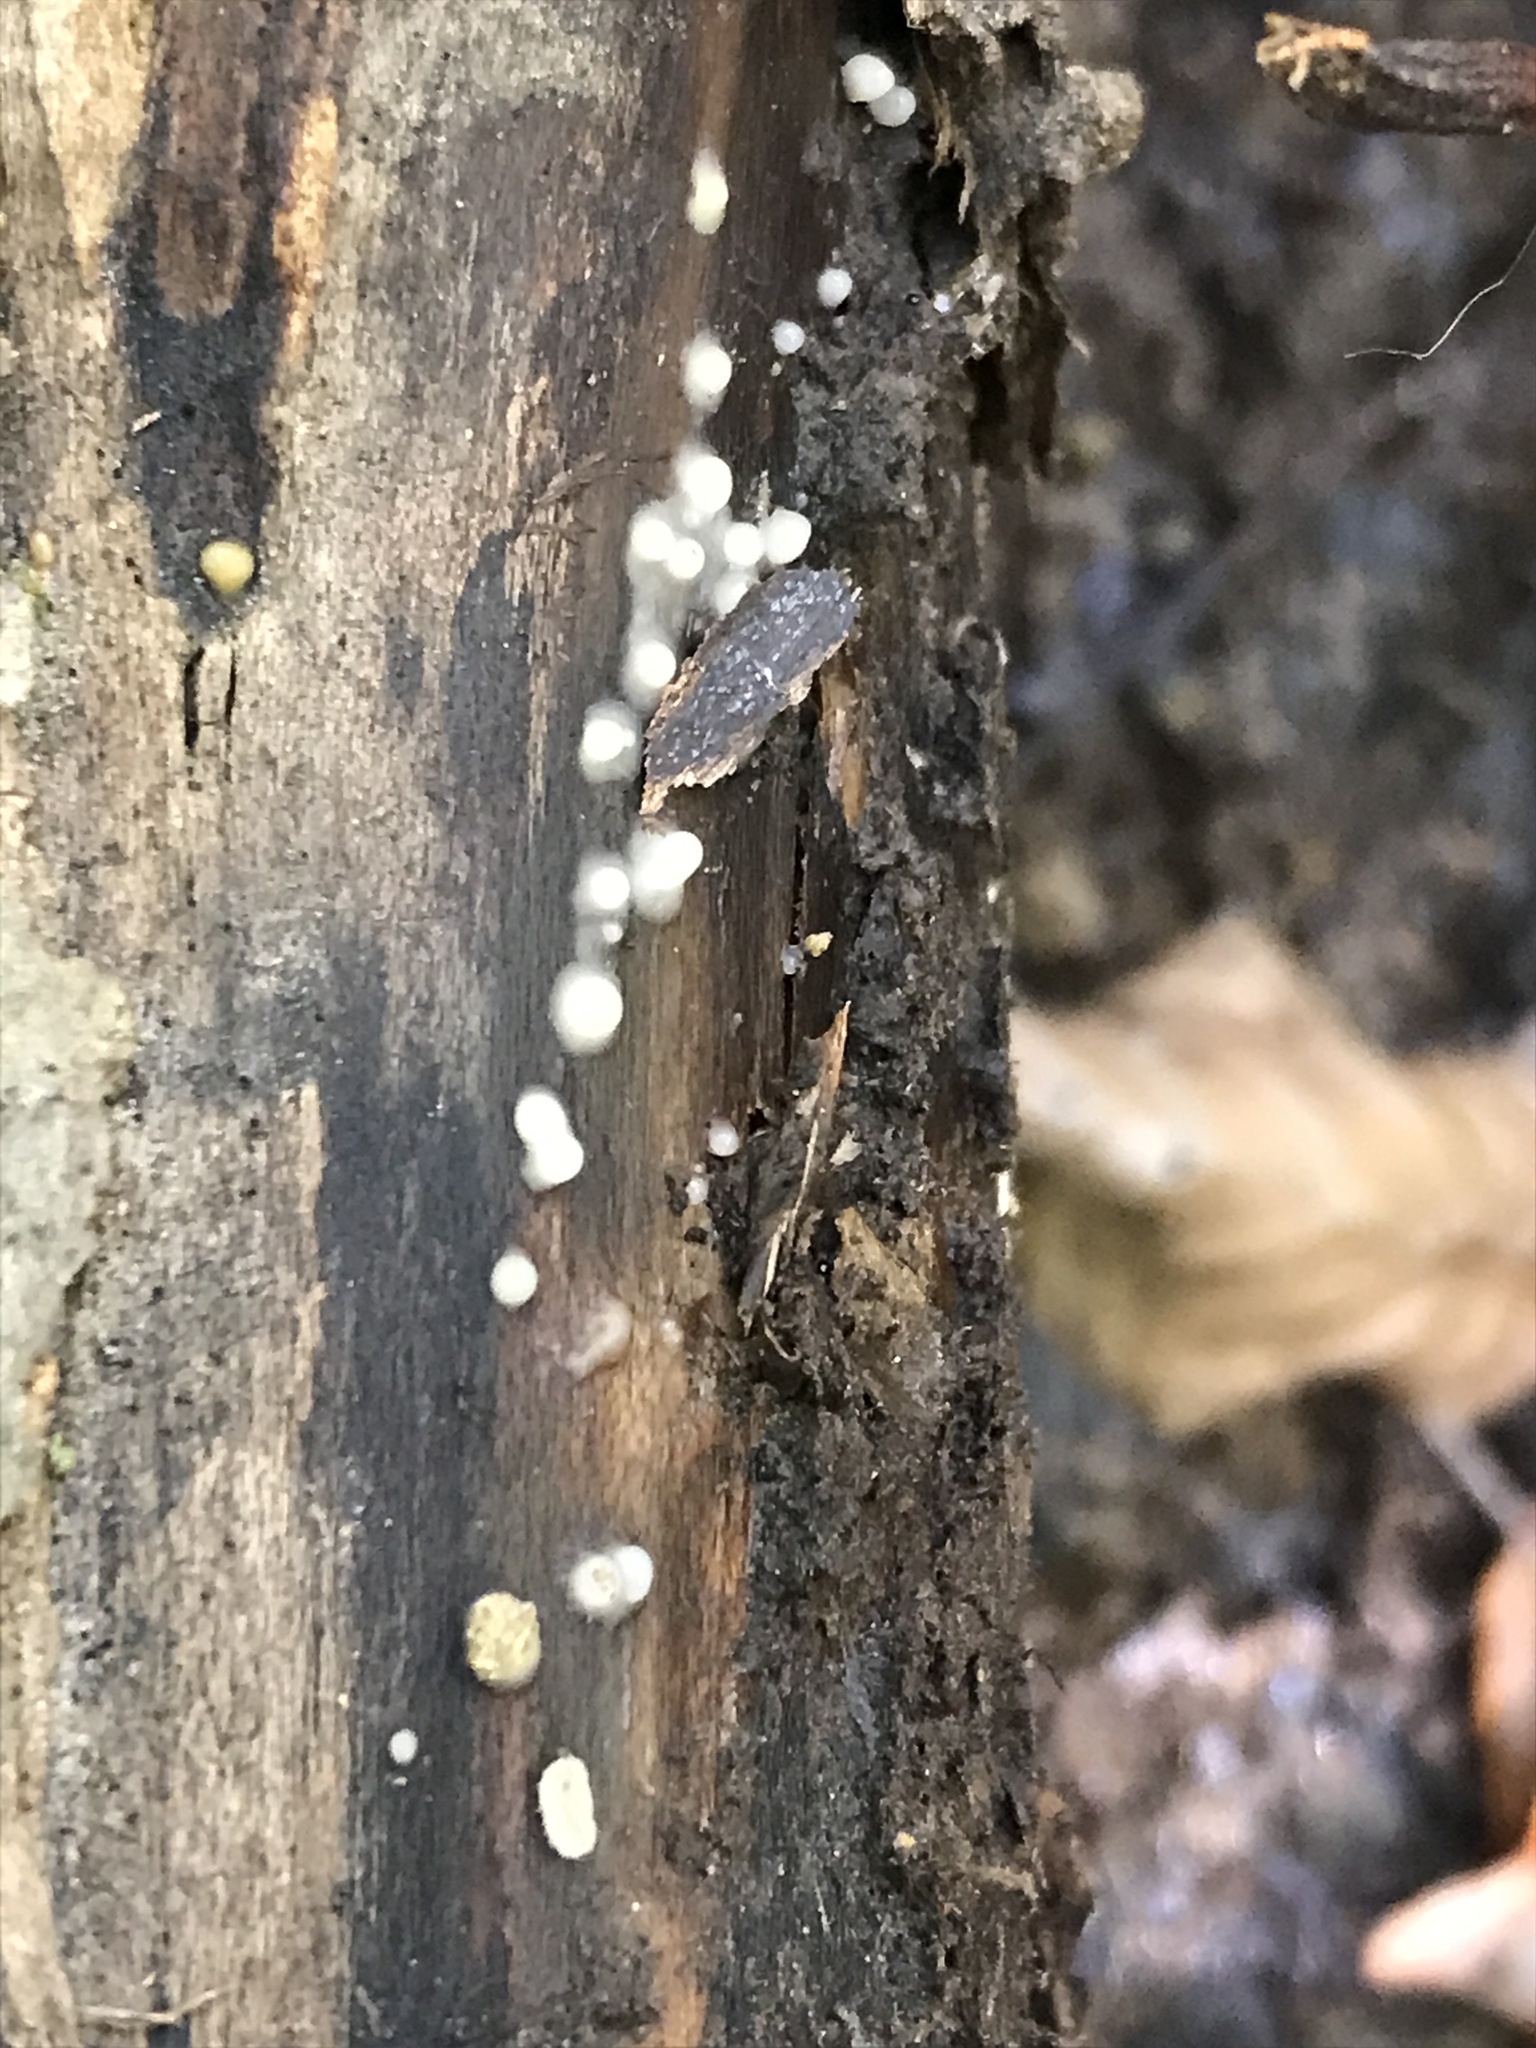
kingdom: Fungi
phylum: Basidiomycota
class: Atractiellomycetes
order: Atractiellales
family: Phleogenaceae
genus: Helicogloea
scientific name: Helicogloea compressa
